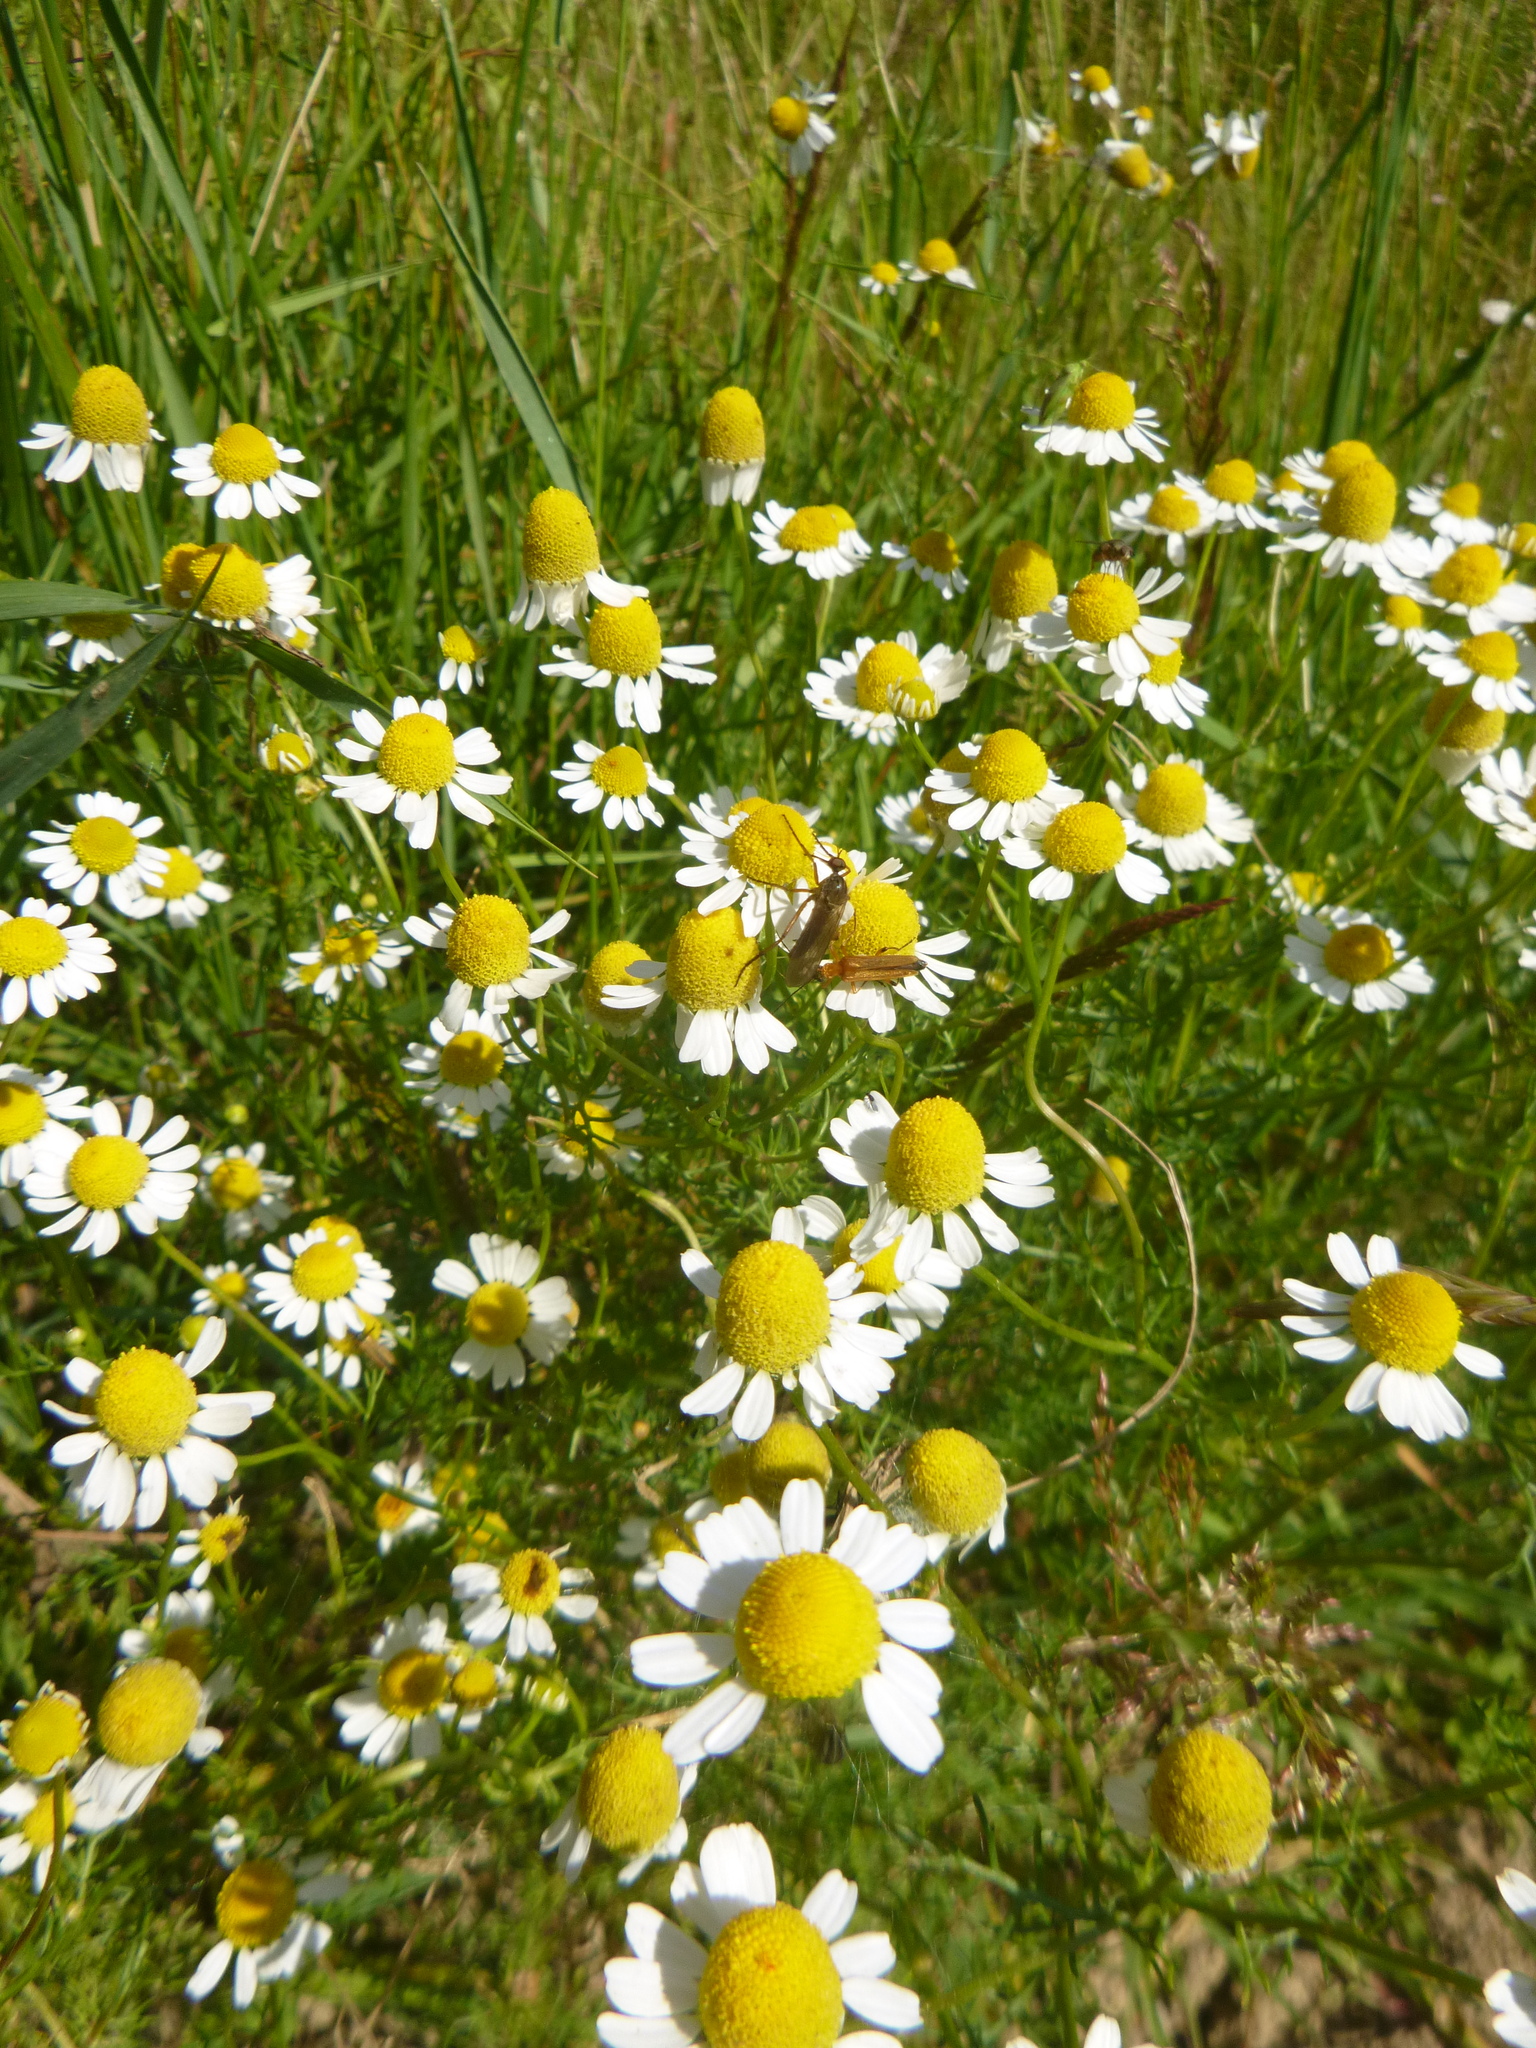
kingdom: Plantae
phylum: Tracheophyta
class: Magnoliopsida
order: Asterales
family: Asteraceae
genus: Matricaria
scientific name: Matricaria chamomilla
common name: Scented mayweed
